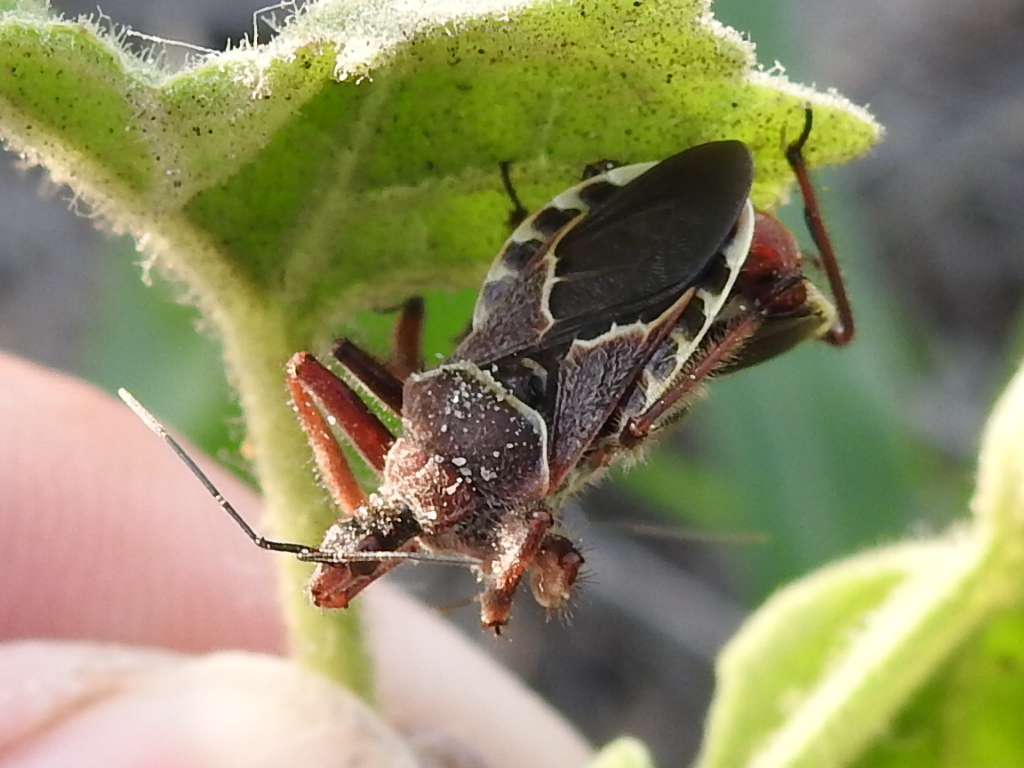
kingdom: Animalia
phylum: Arthropoda
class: Insecta
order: Hemiptera
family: Reduviidae
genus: Apiomerus
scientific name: Apiomerus spissipes
